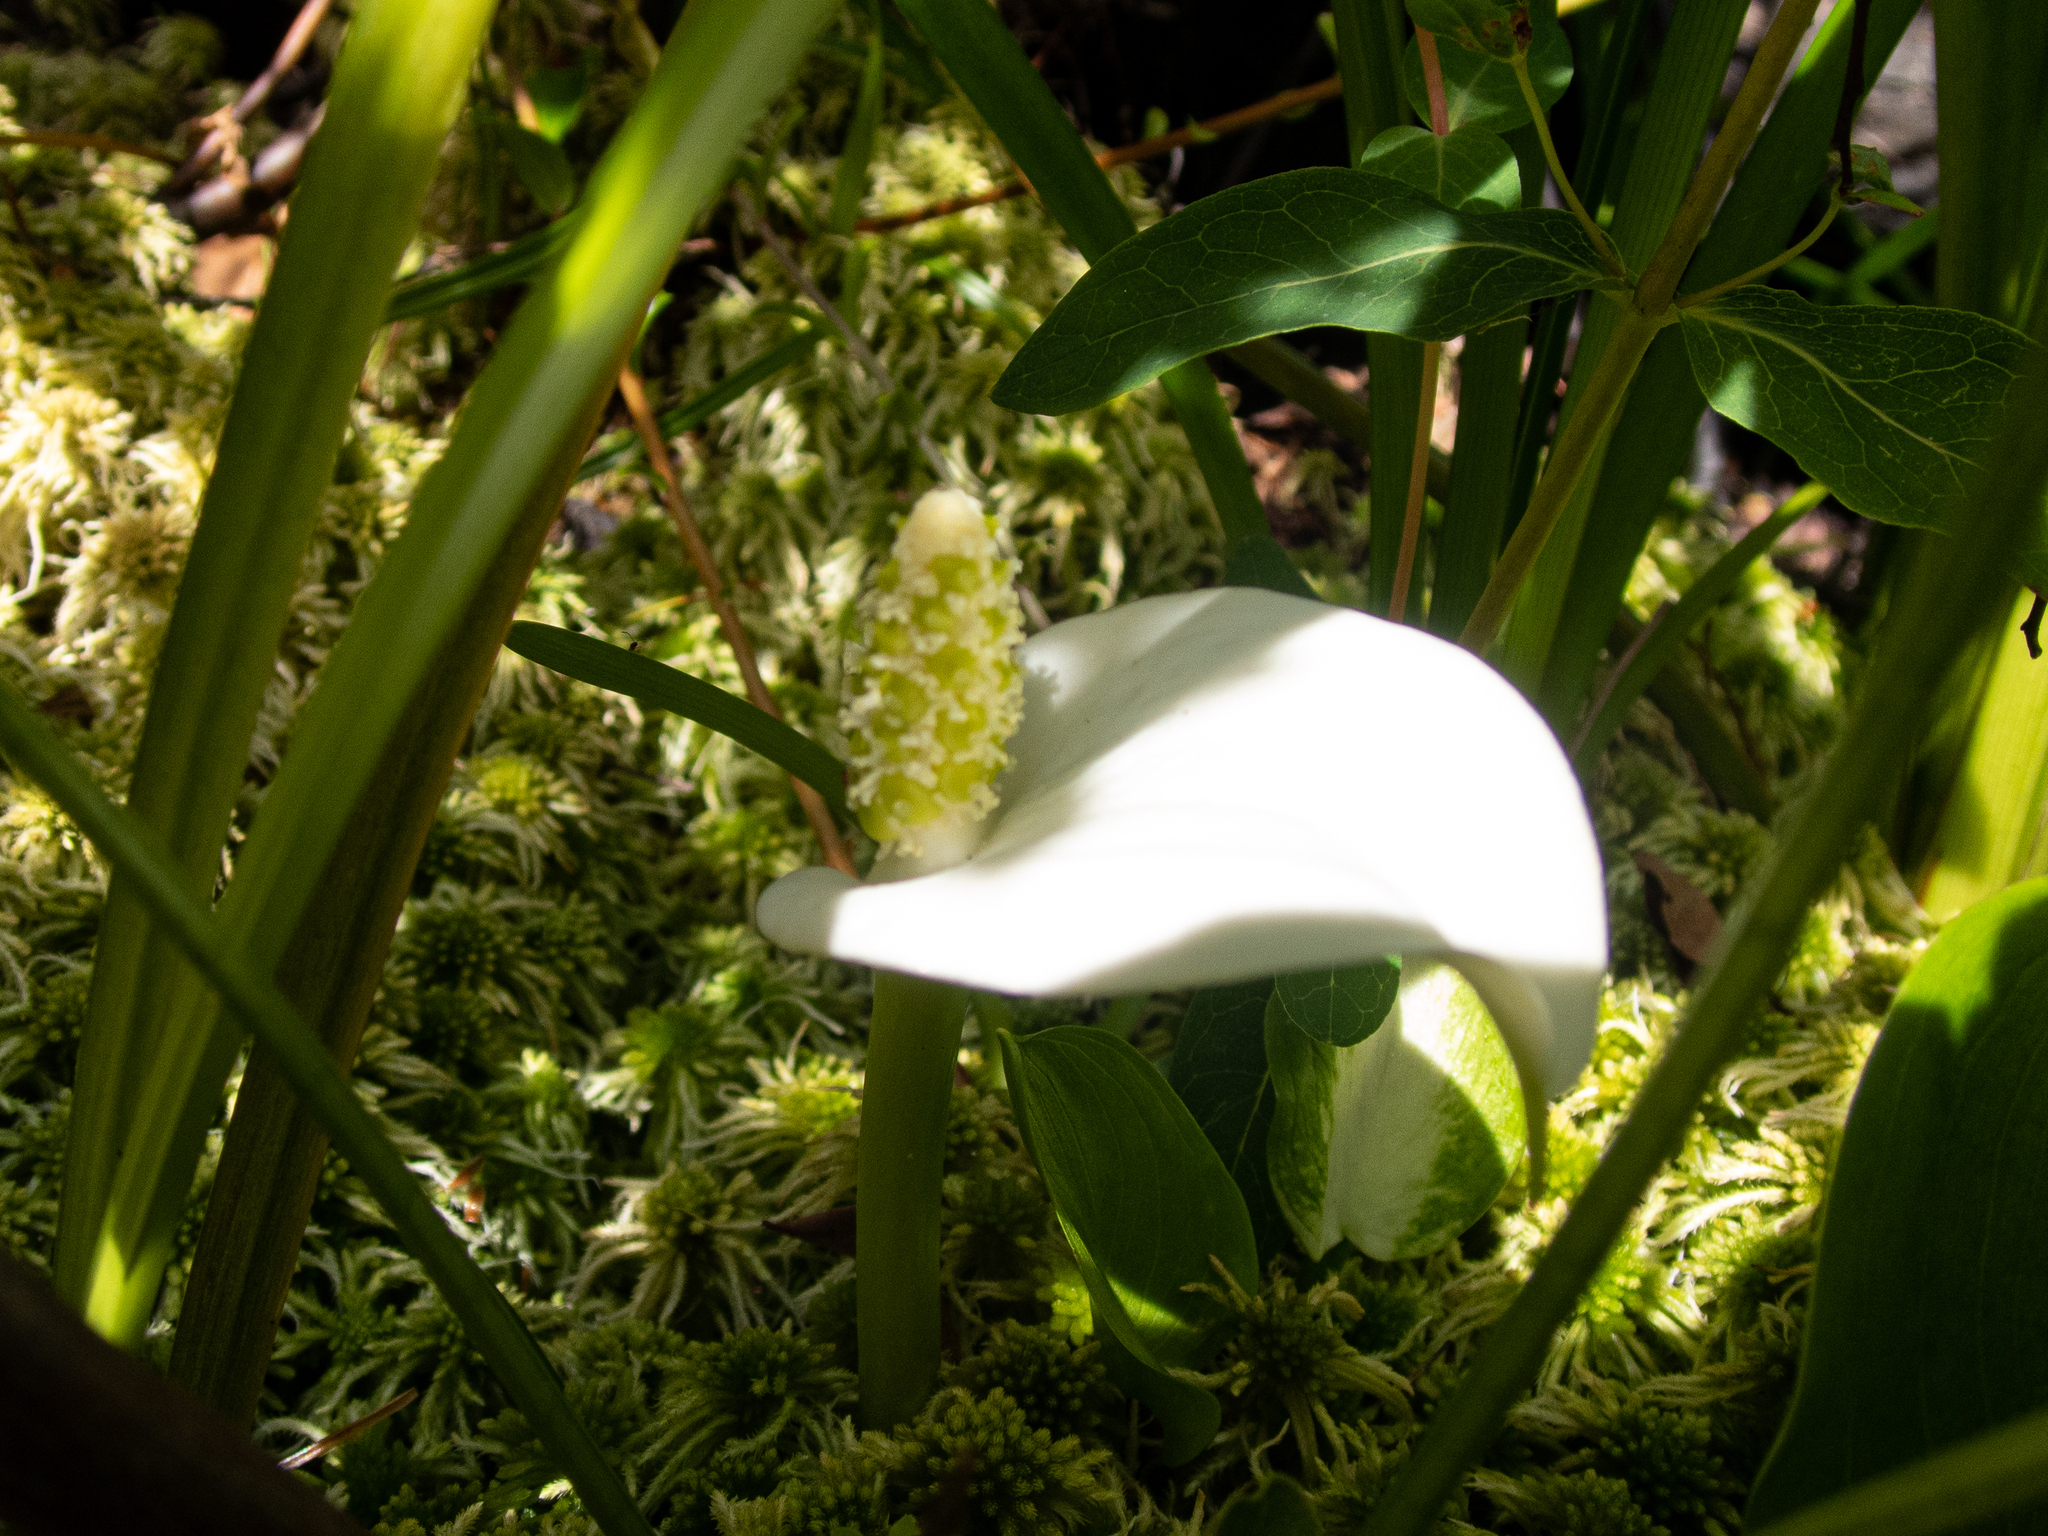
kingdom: Plantae
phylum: Tracheophyta
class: Liliopsida
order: Alismatales
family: Araceae
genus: Calla
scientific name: Calla palustris
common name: Bog arum
